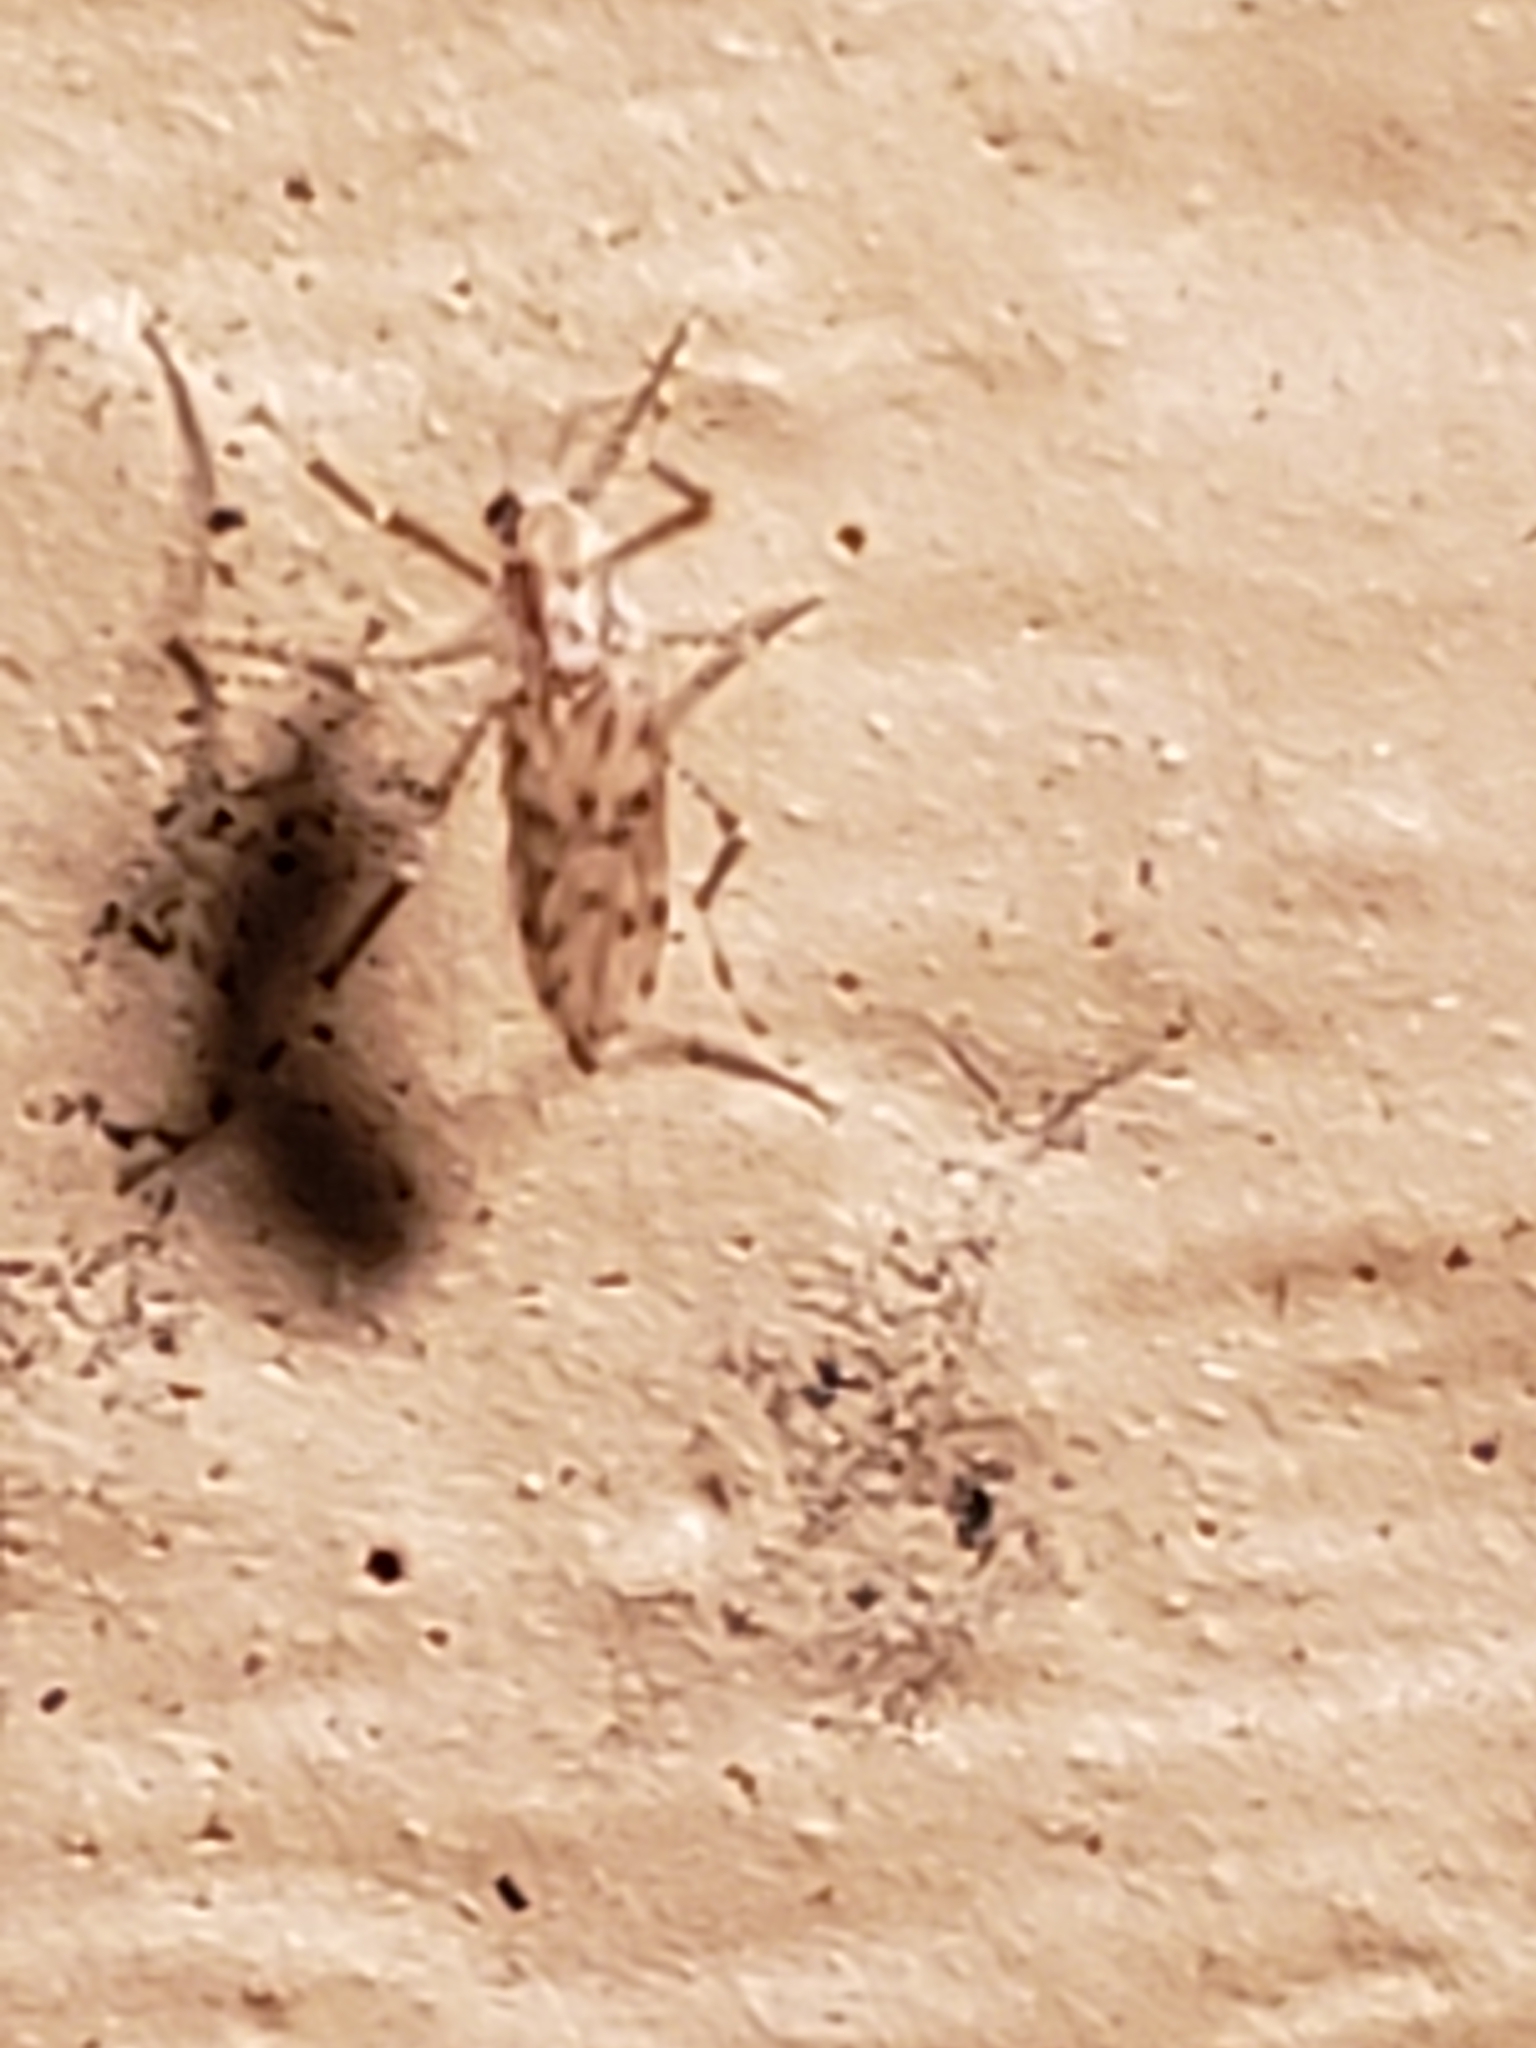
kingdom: Animalia
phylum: Arthropoda
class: Insecta
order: Diptera
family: Chaoboridae
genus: Chaoborus
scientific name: Chaoborus punctipennis
